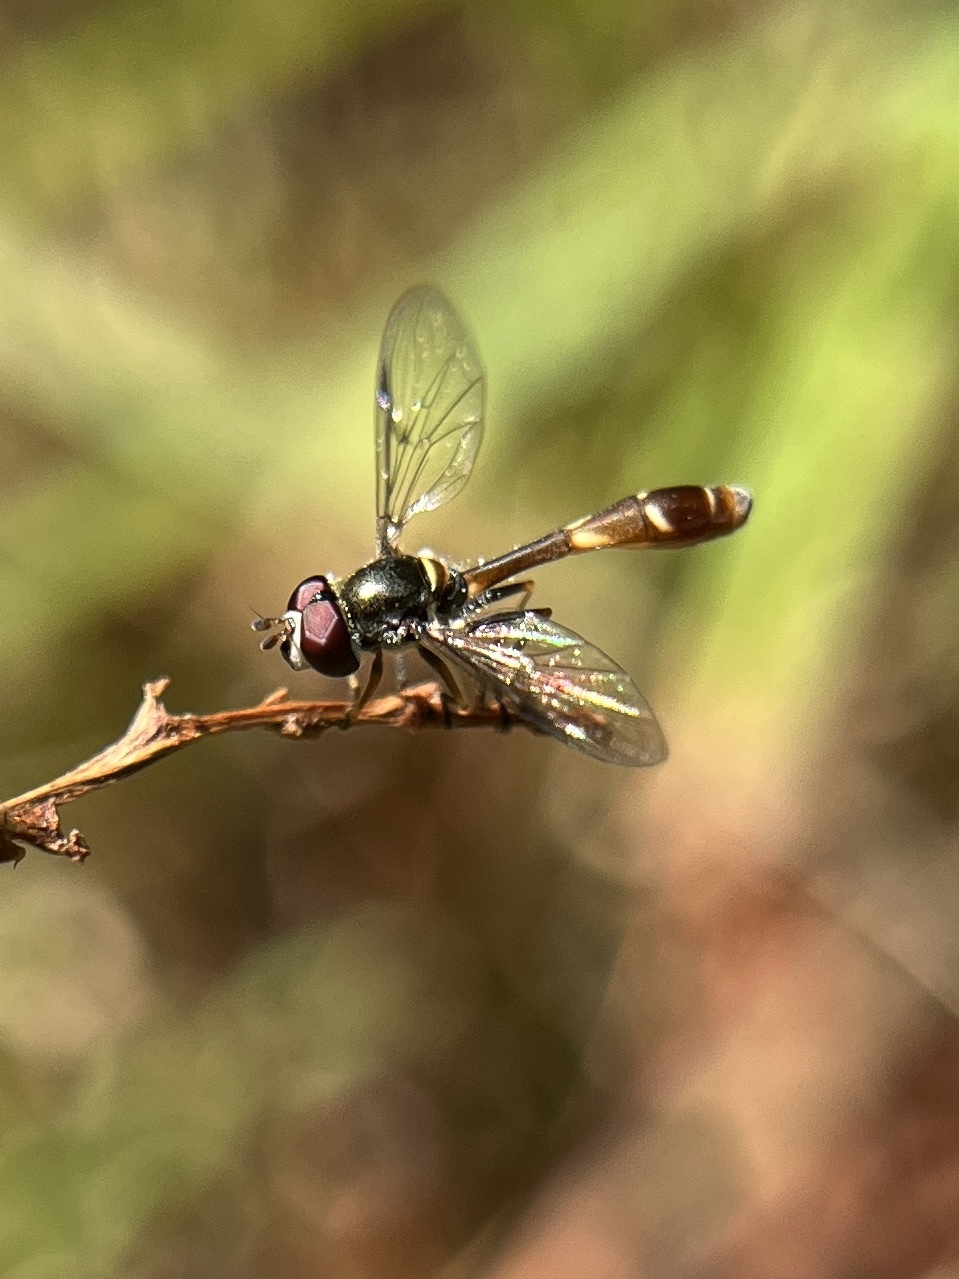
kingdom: Animalia
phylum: Arthropoda
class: Insecta
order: Diptera
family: Syrphidae
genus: Dioprosopa
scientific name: Dioprosopa clavatus
